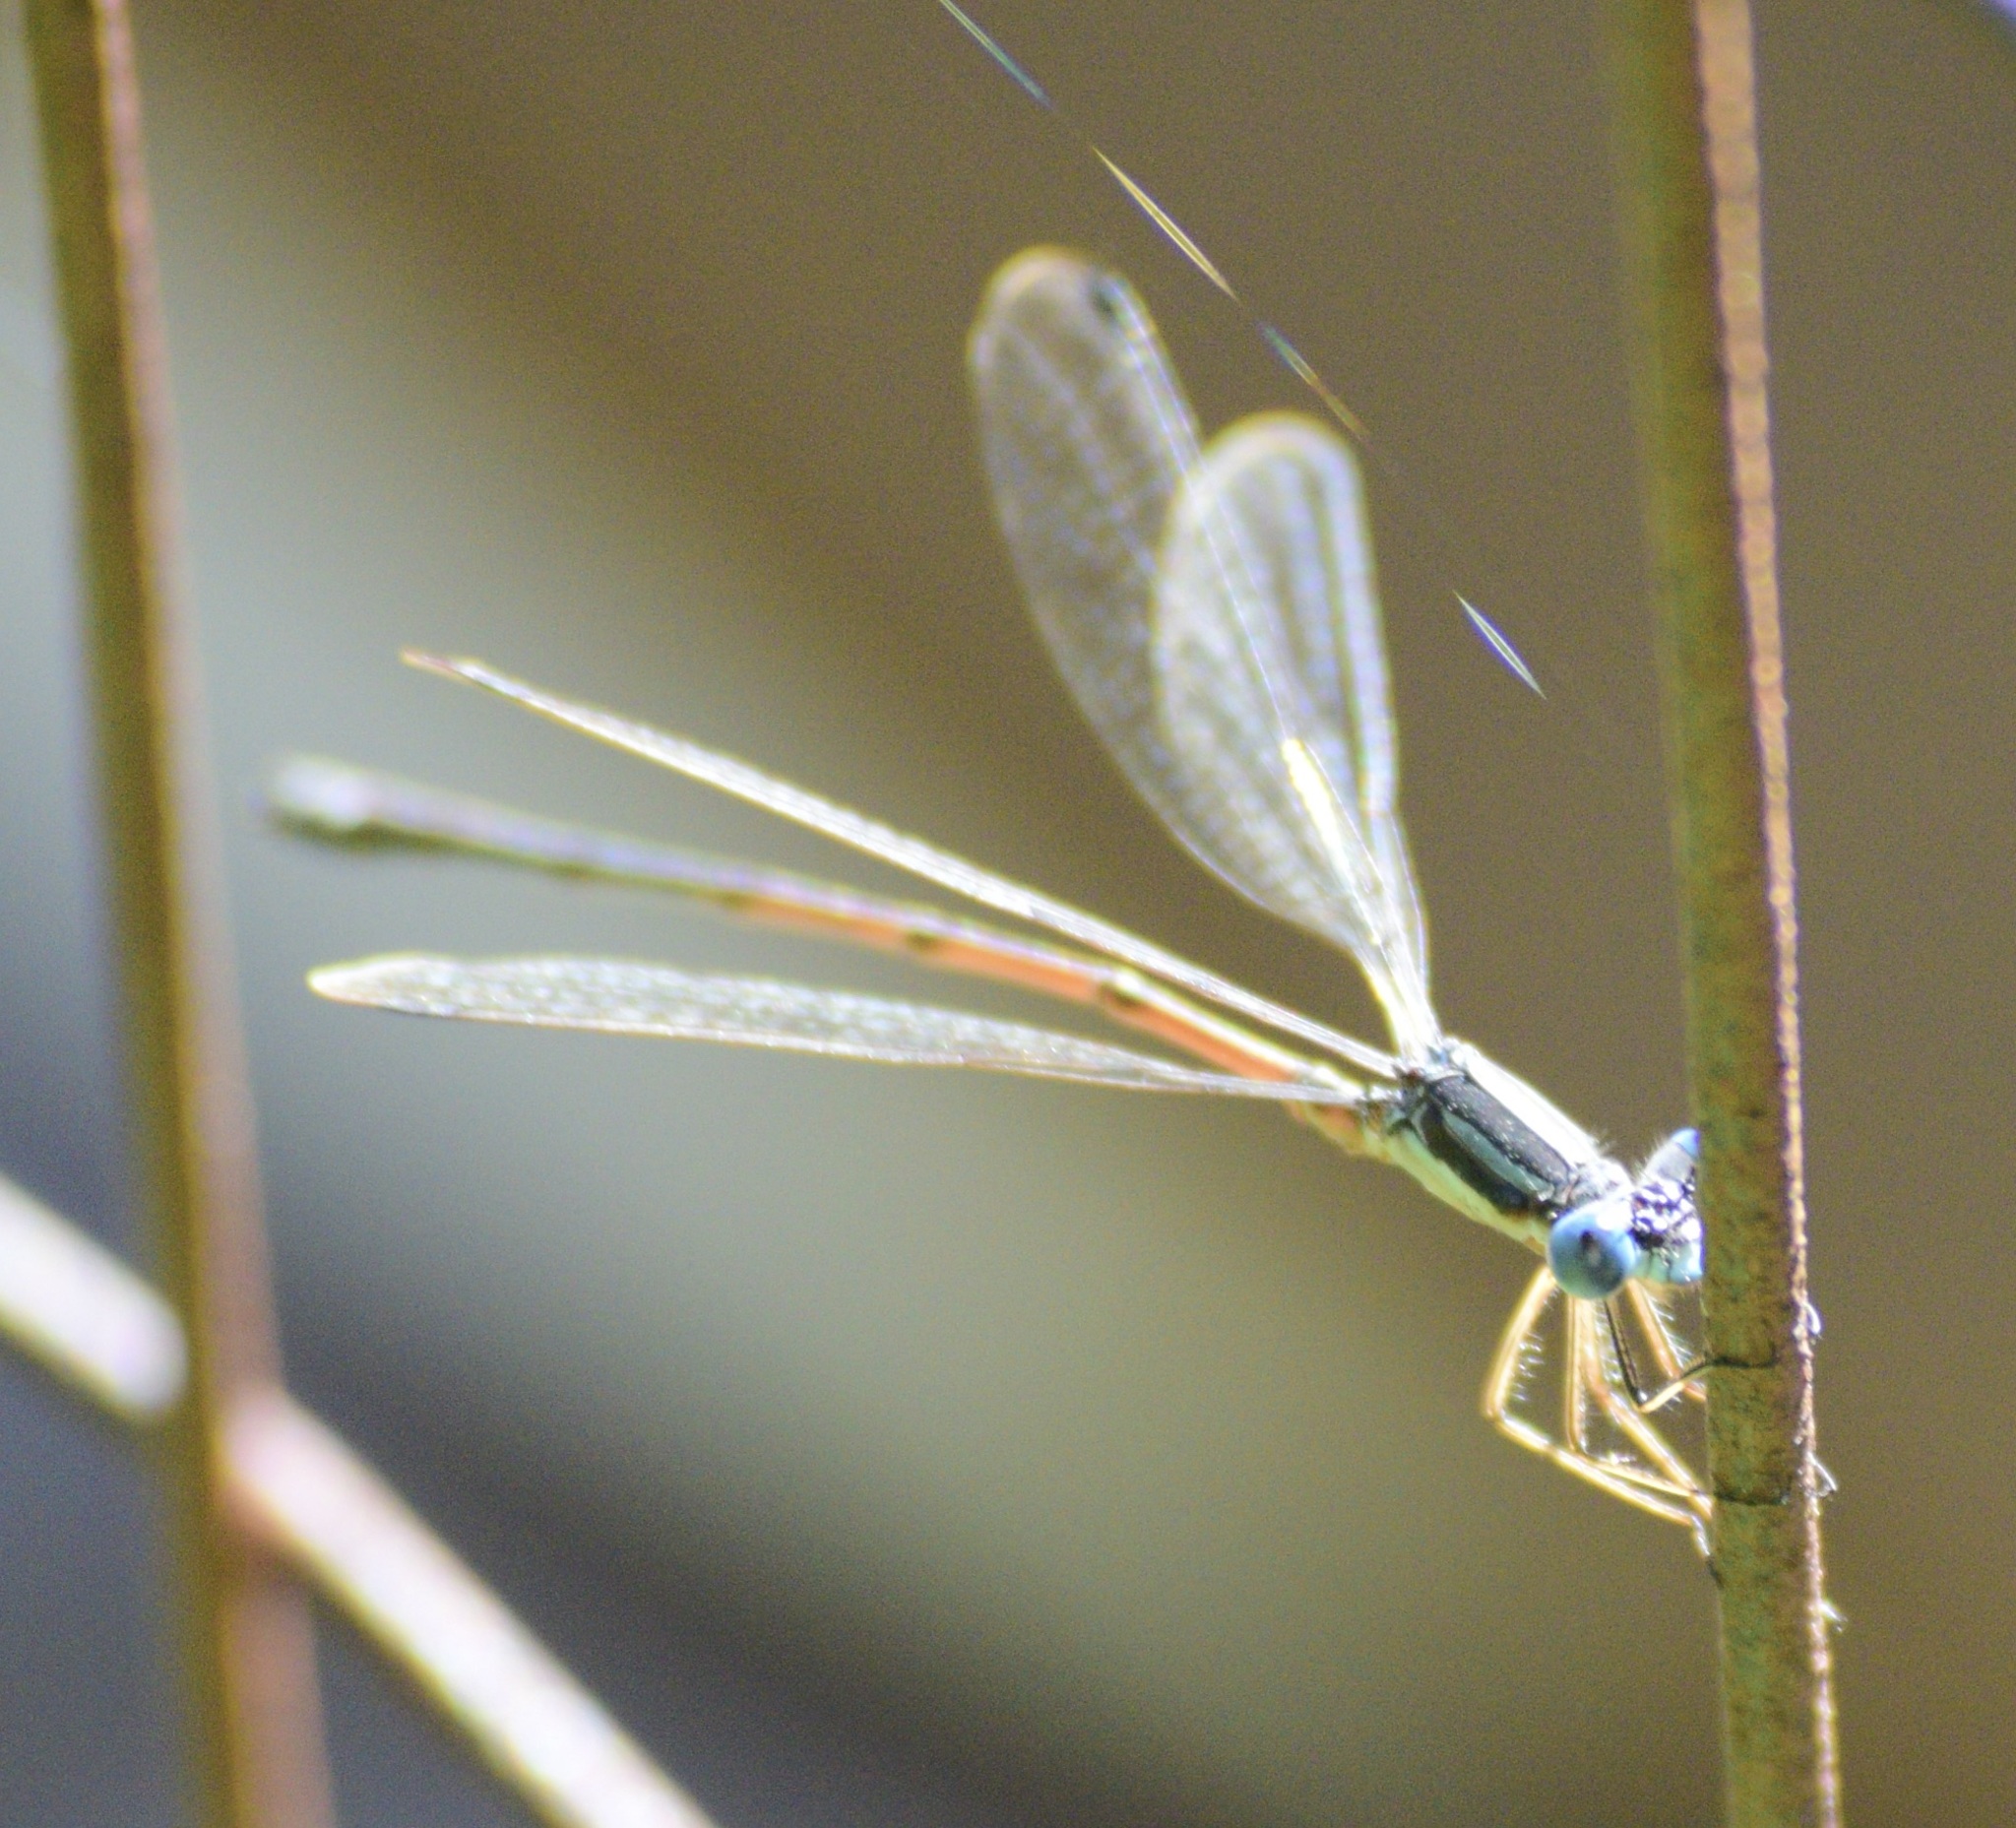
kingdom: Animalia
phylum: Arthropoda
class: Insecta
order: Odonata
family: Lestidae
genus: Lestes
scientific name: Lestes rectangularis
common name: Slender spreadwing
